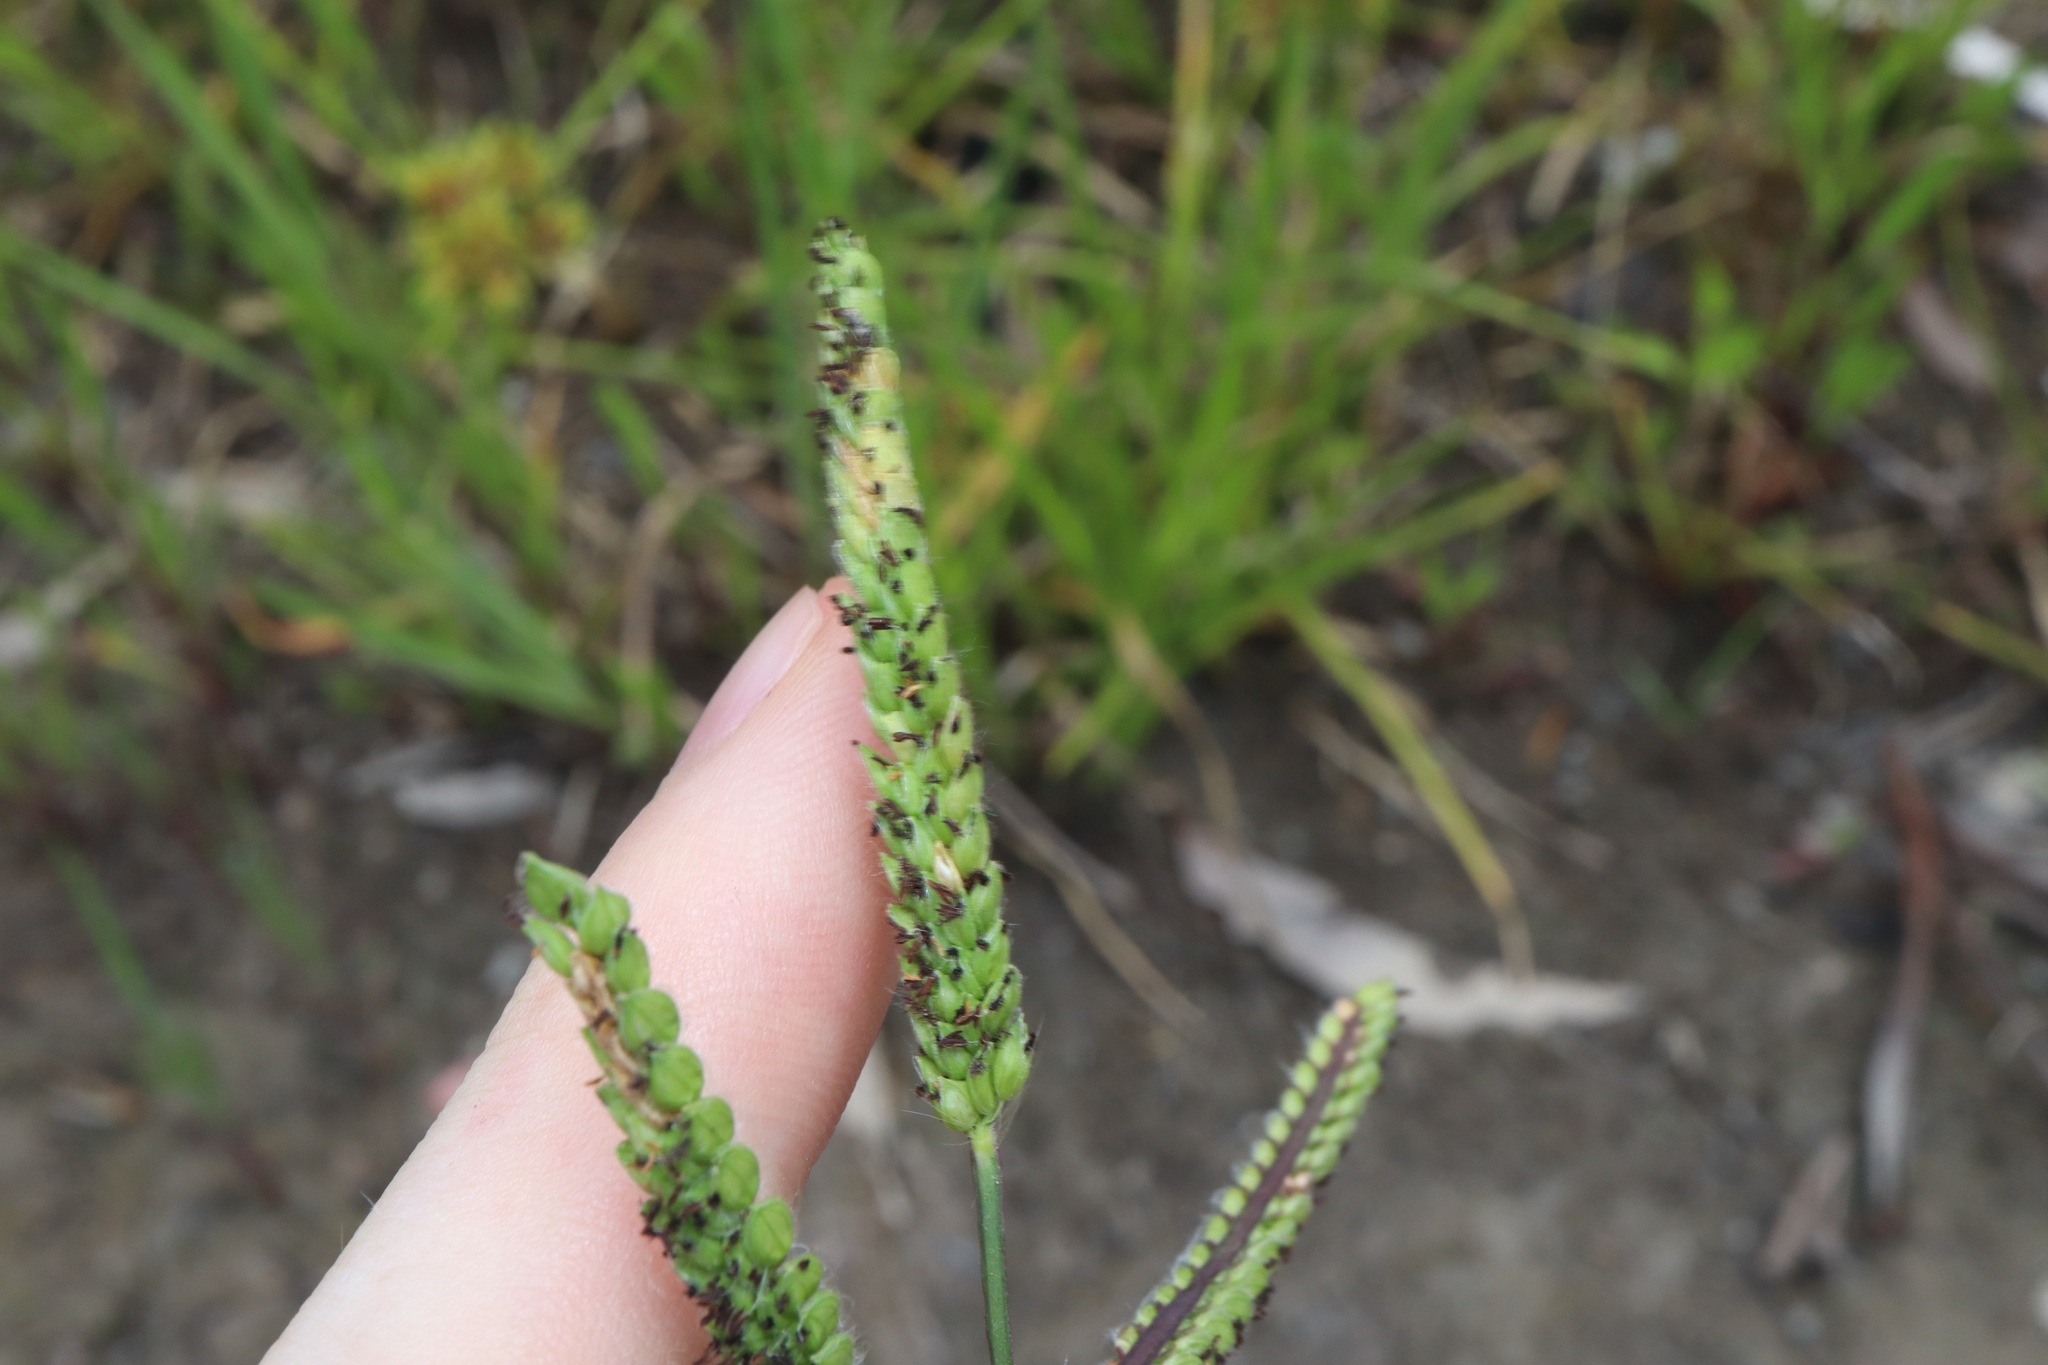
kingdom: Plantae
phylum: Tracheophyta
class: Liliopsida
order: Poales
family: Poaceae
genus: Paspalum
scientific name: Paspalum dilatatum
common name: Dallisgrass
